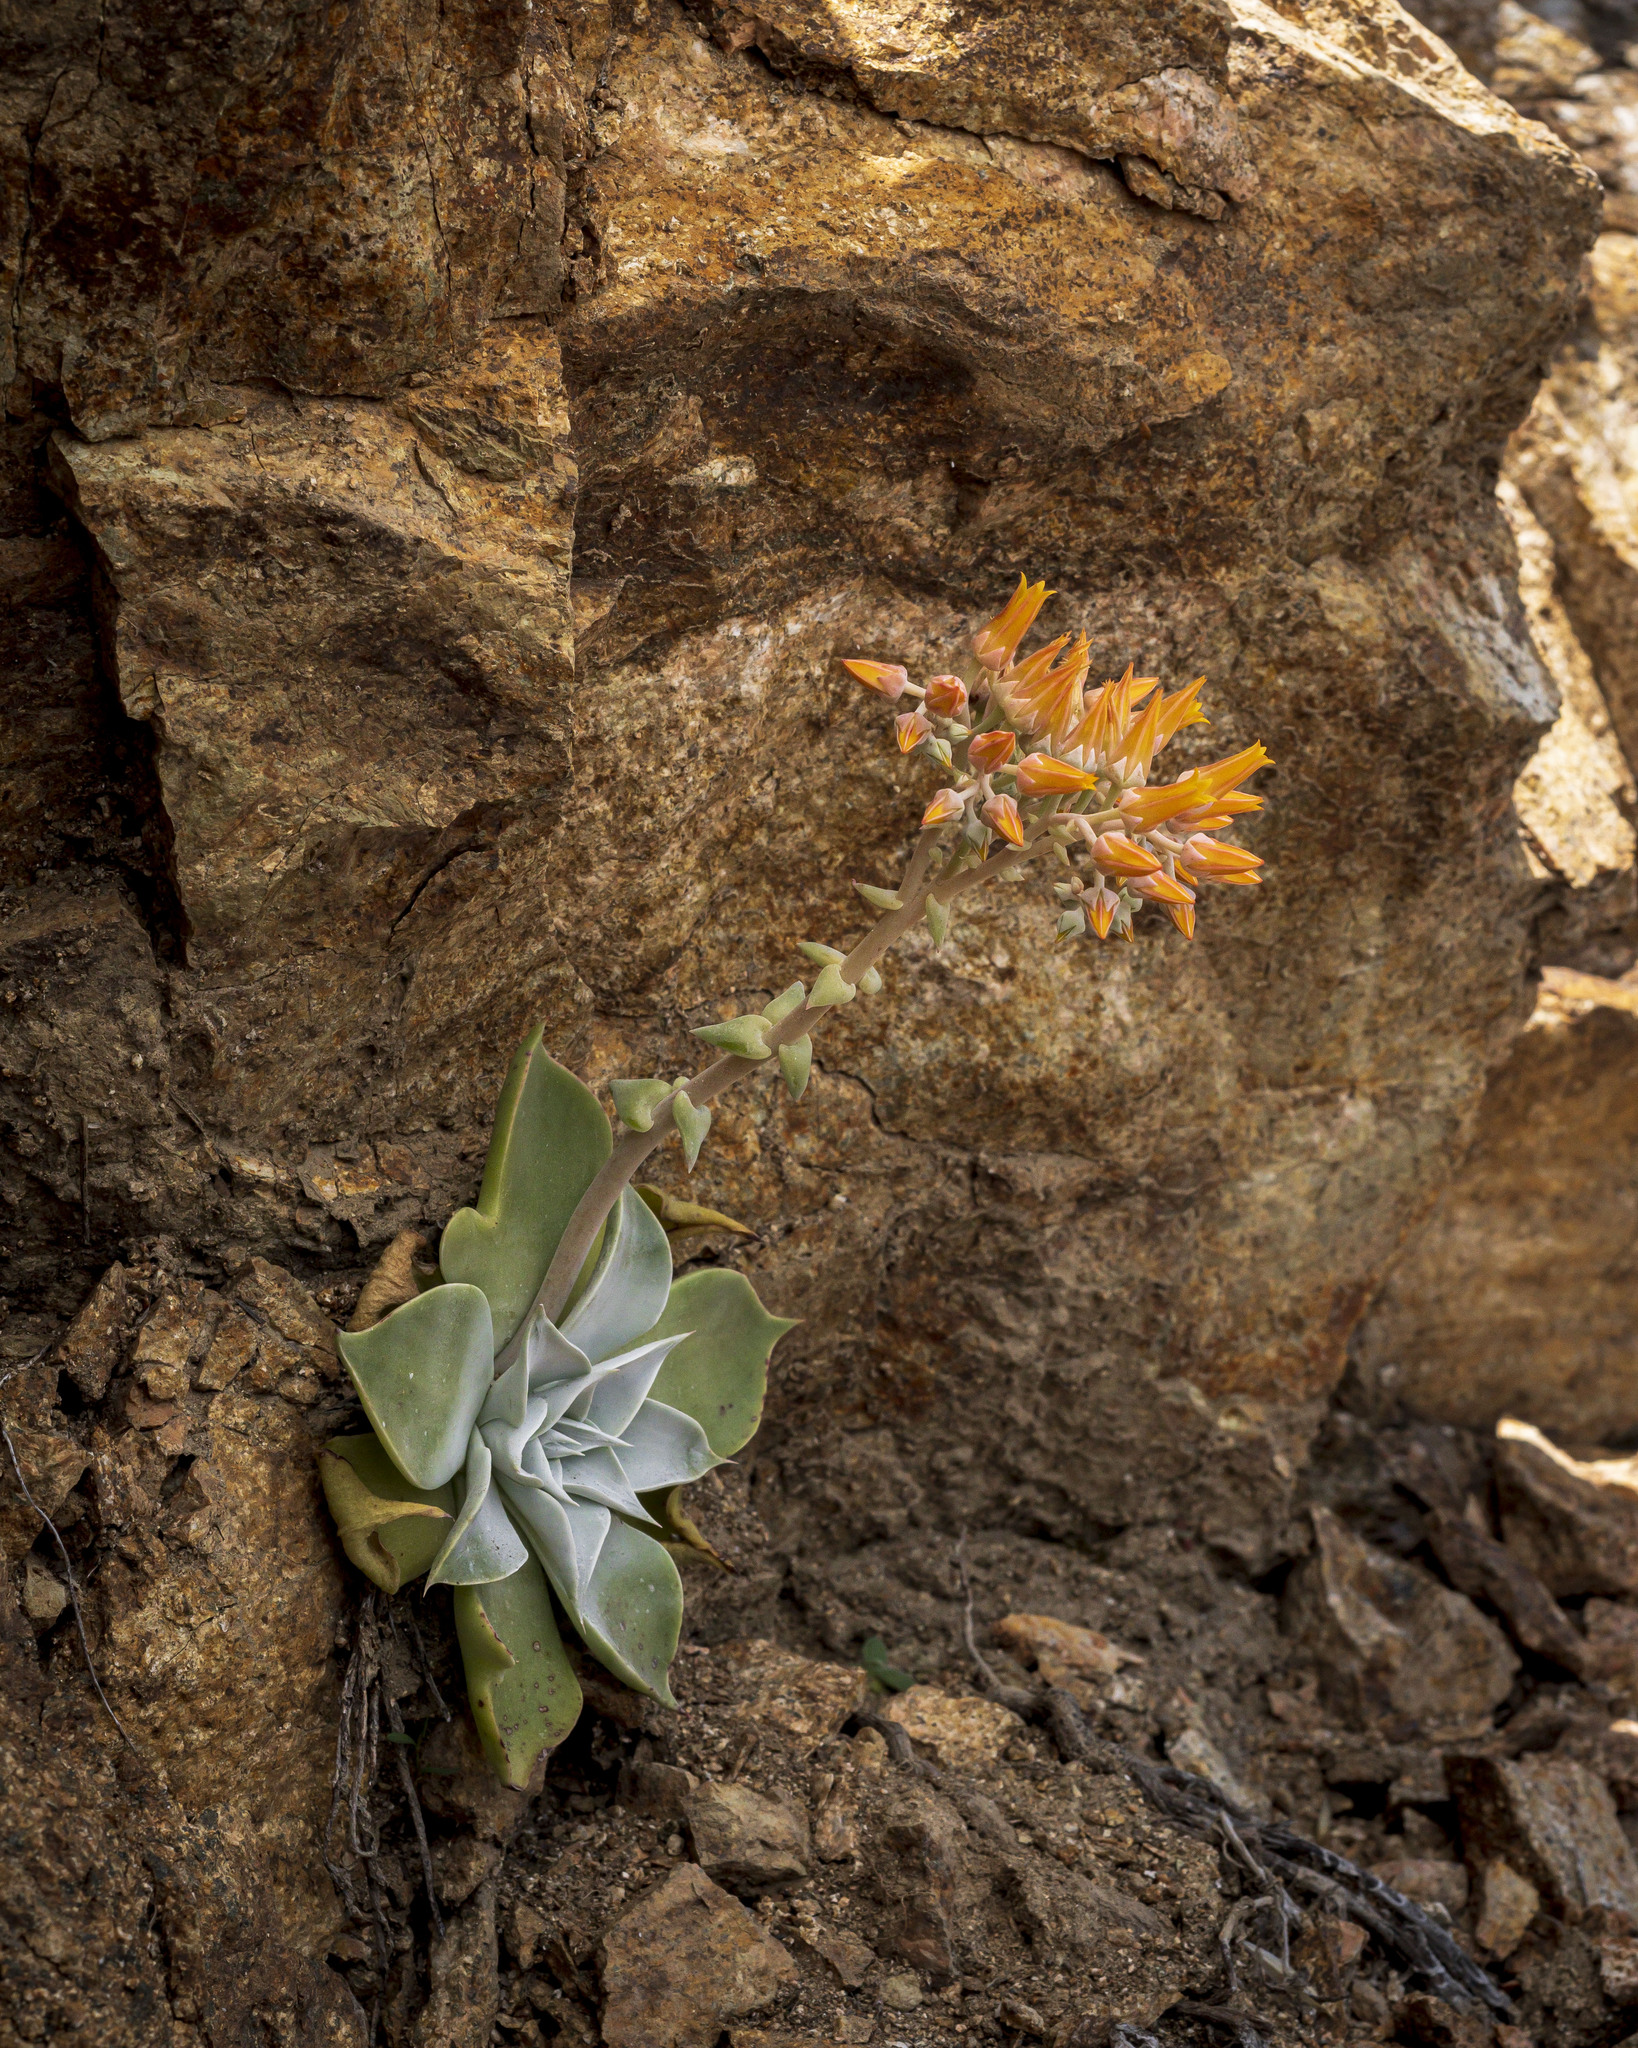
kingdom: Plantae
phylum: Tracheophyta
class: Magnoliopsida
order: Saxifragales
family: Crassulaceae
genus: Dudleya
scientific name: Dudleya cymosa
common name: Canyon dudleya
